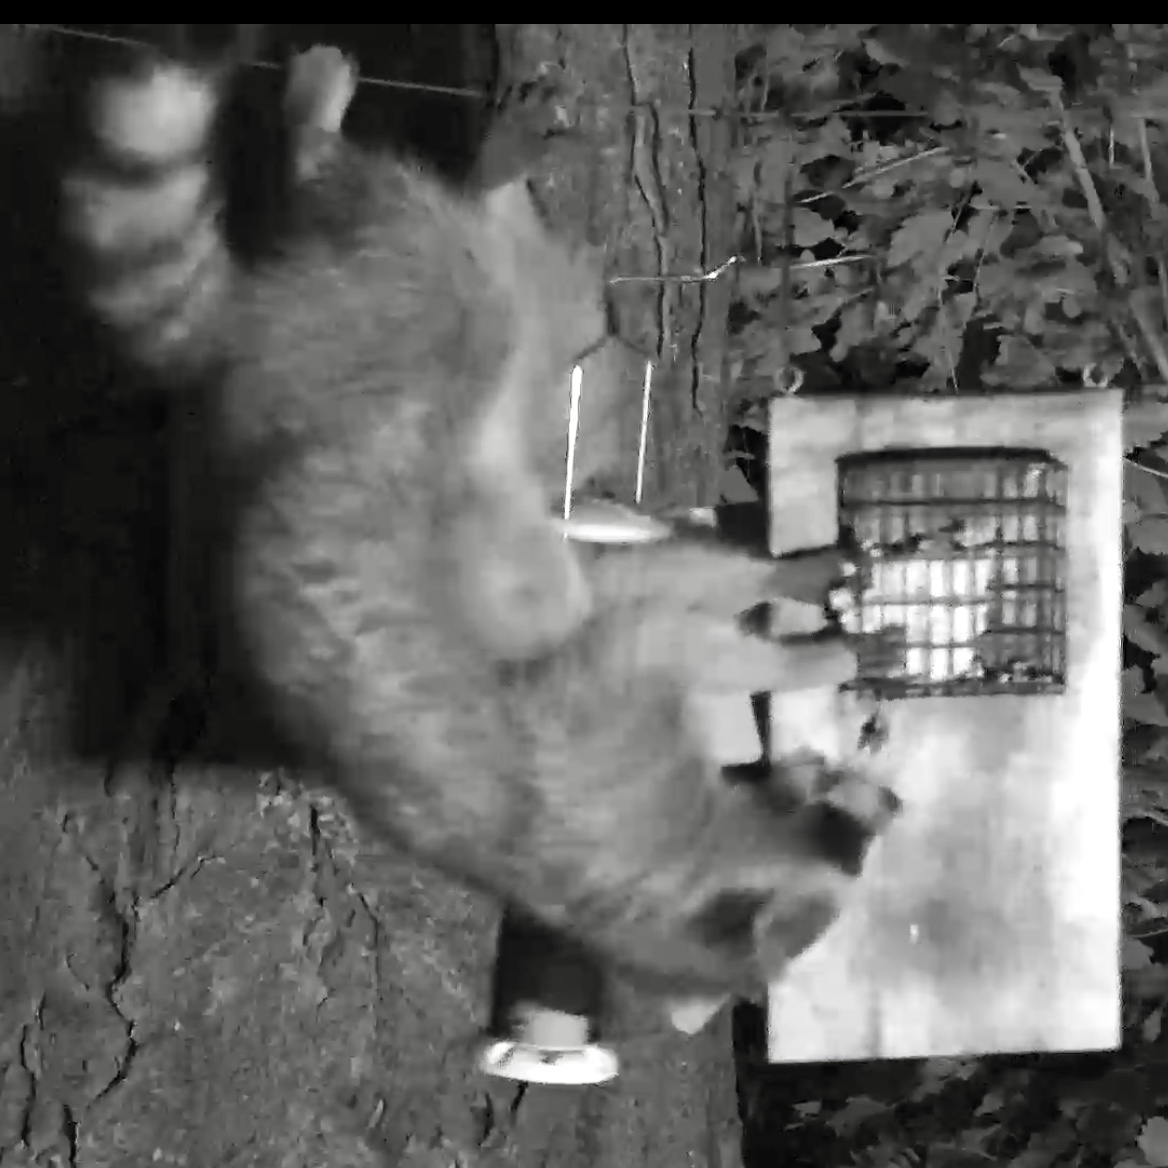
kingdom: Animalia
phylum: Chordata
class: Mammalia
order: Carnivora
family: Procyonidae
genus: Procyon
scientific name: Procyon lotor
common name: Raccoon
